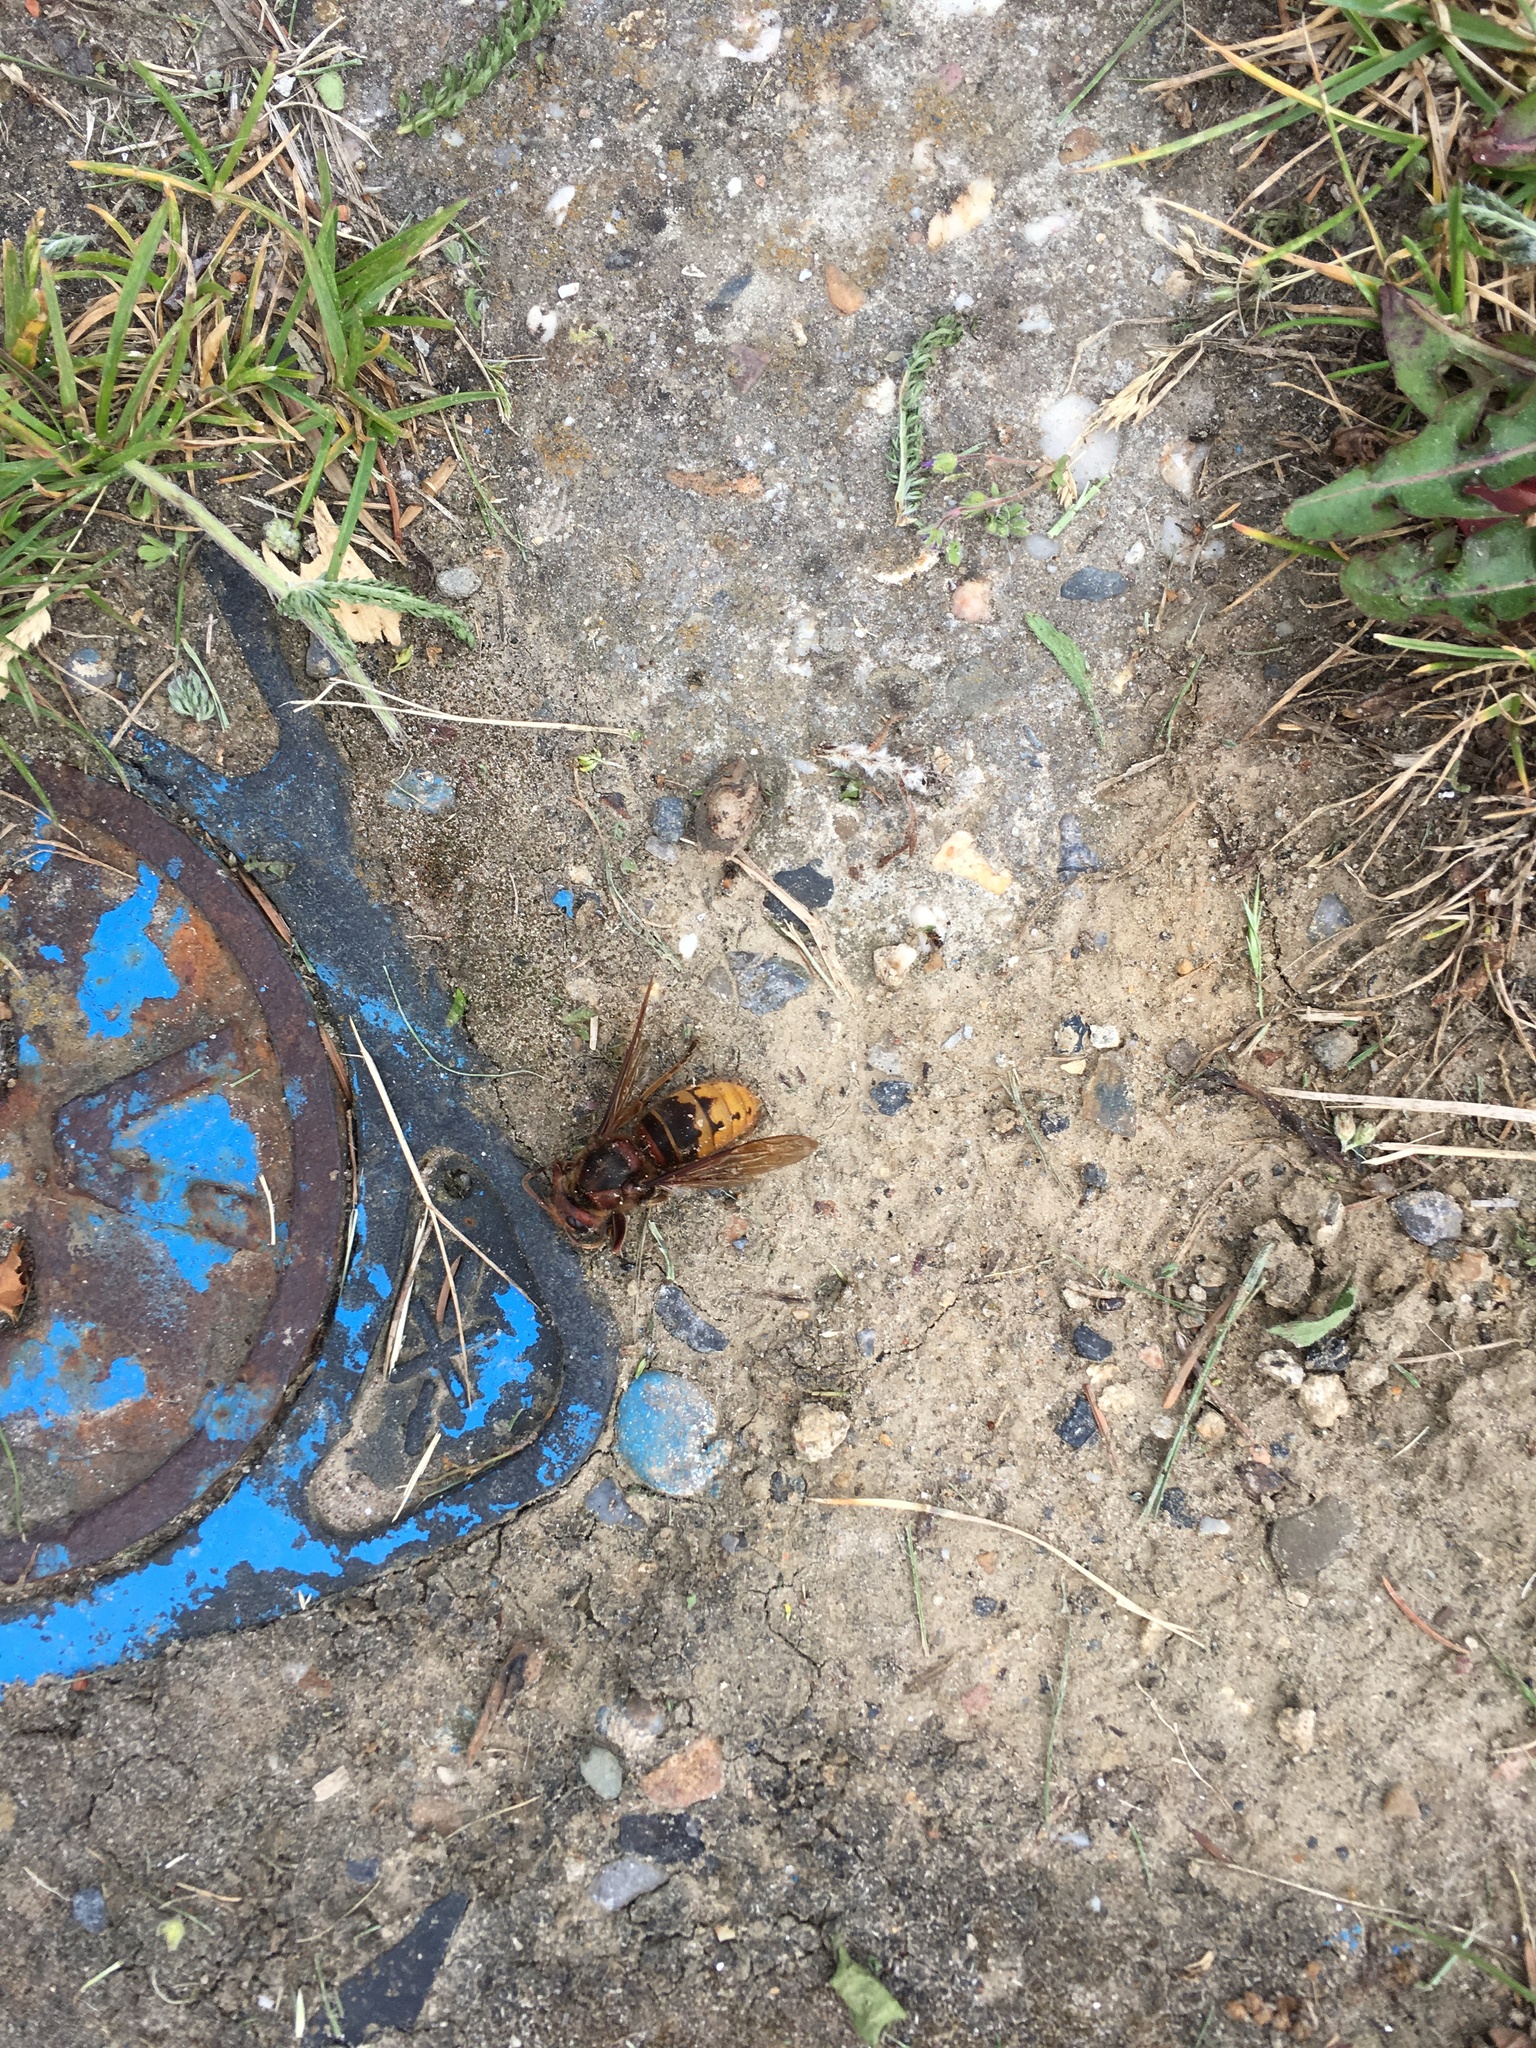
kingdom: Animalia
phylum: Arthropoda
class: Insecta
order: Hymenoptera
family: Vespidae
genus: Vespa
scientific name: Vespa crabro
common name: Hornet
